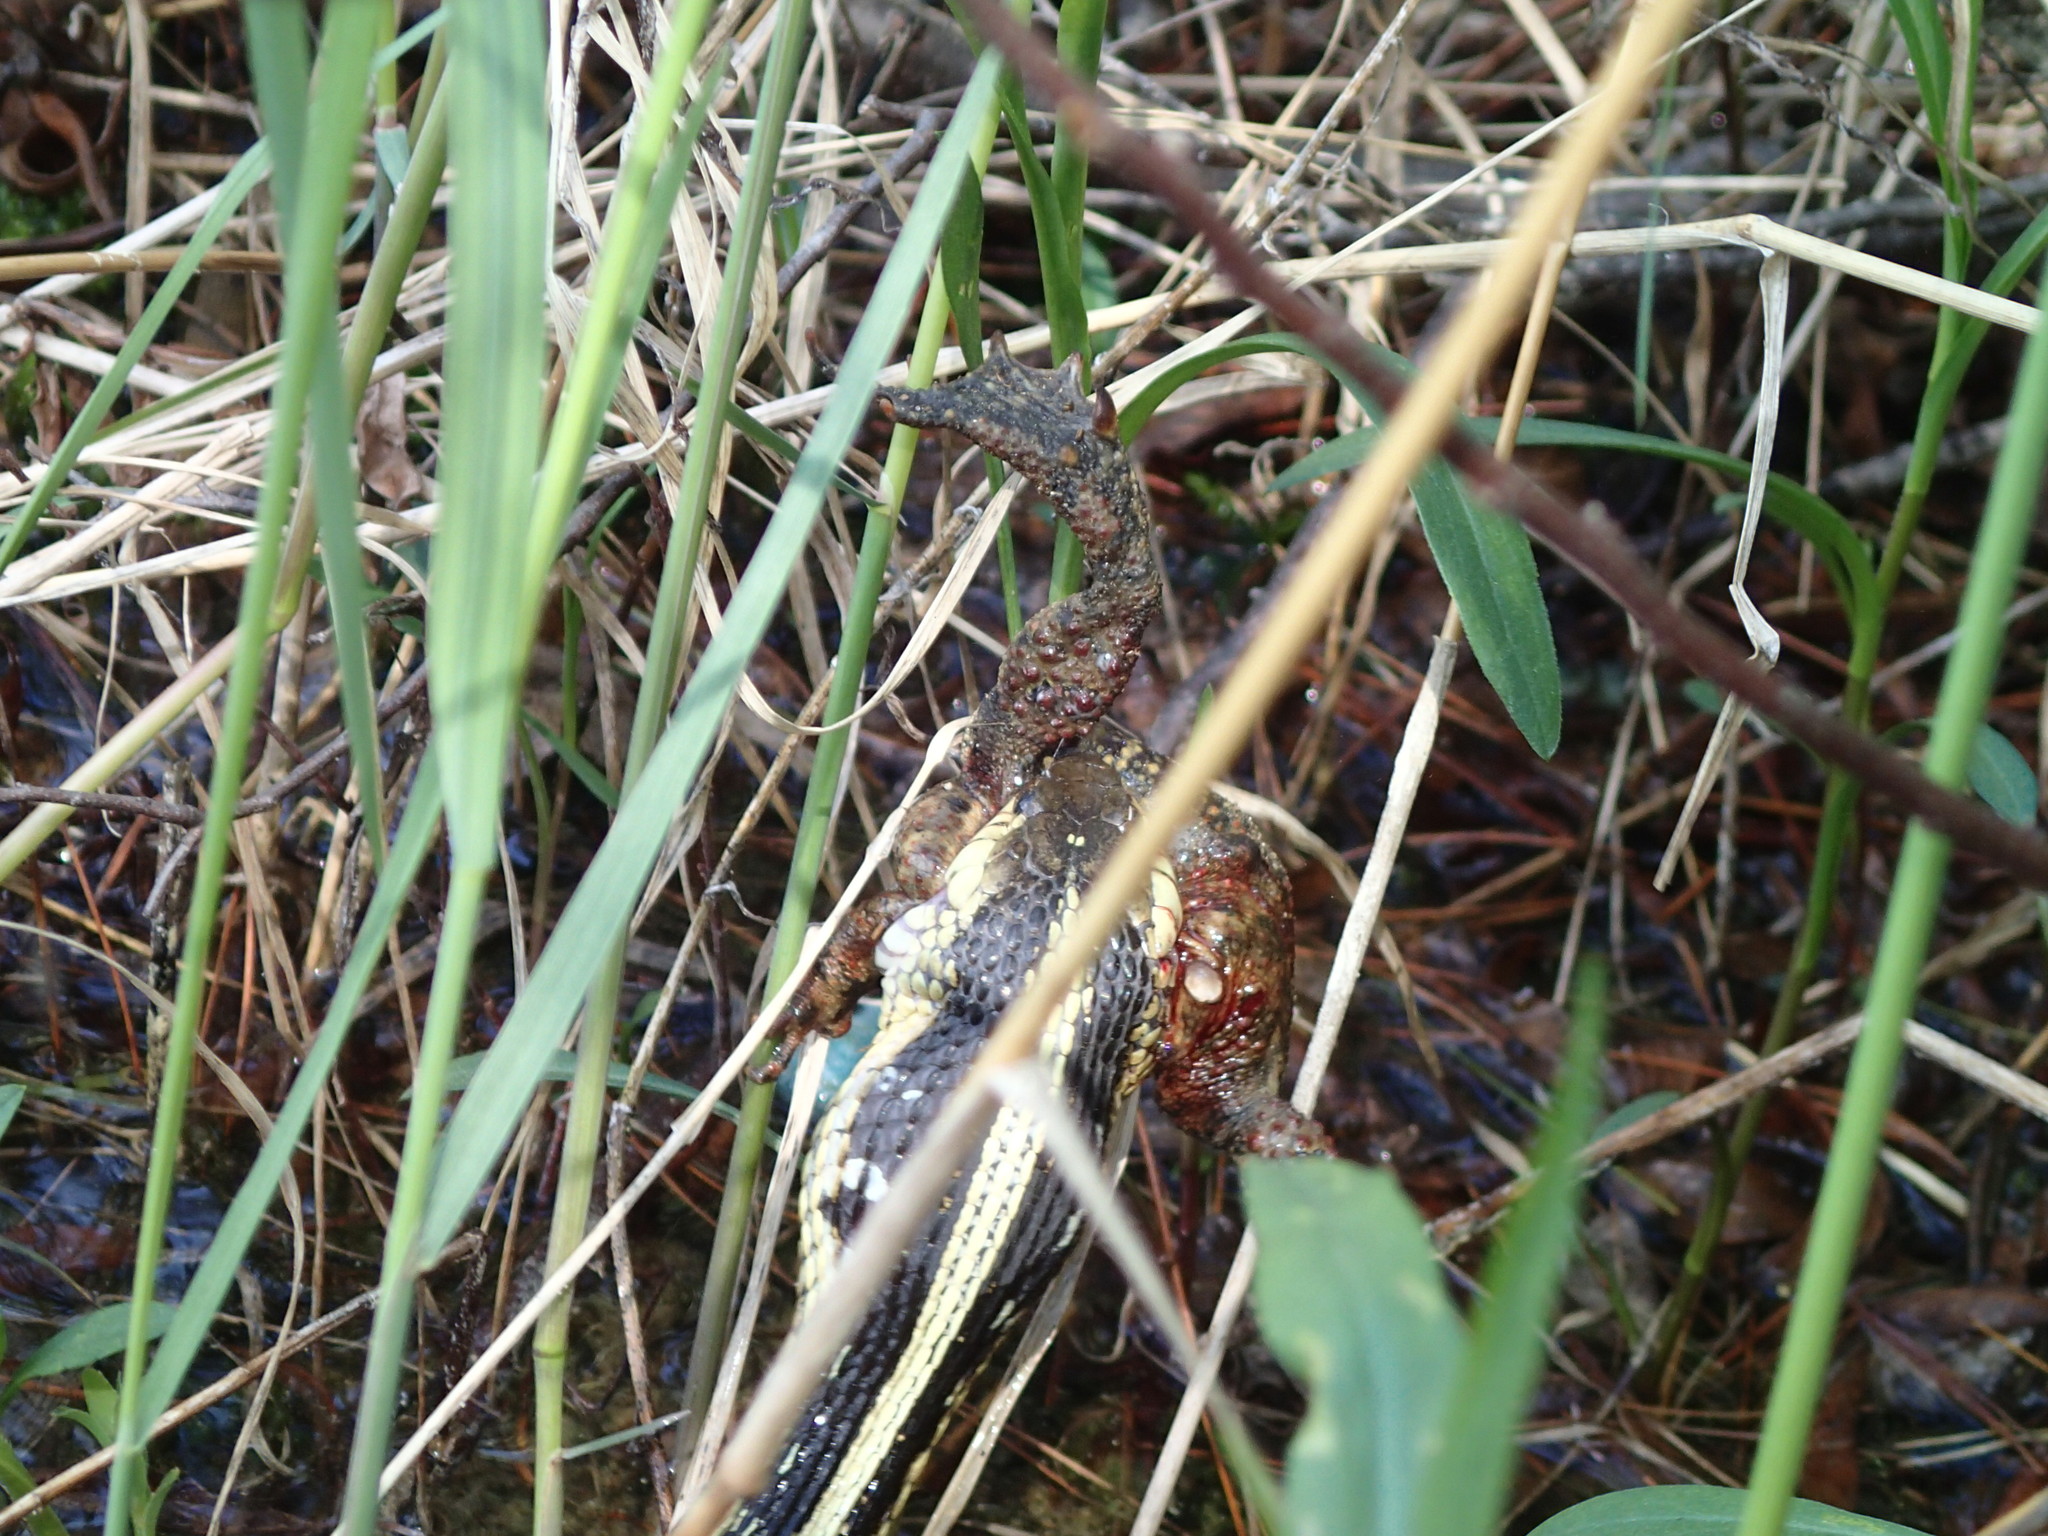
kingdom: Animalia
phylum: Chordata
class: Squamata
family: Colubridae
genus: Thamnophis
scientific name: Thamnophis sirtalis
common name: Common garter snake
